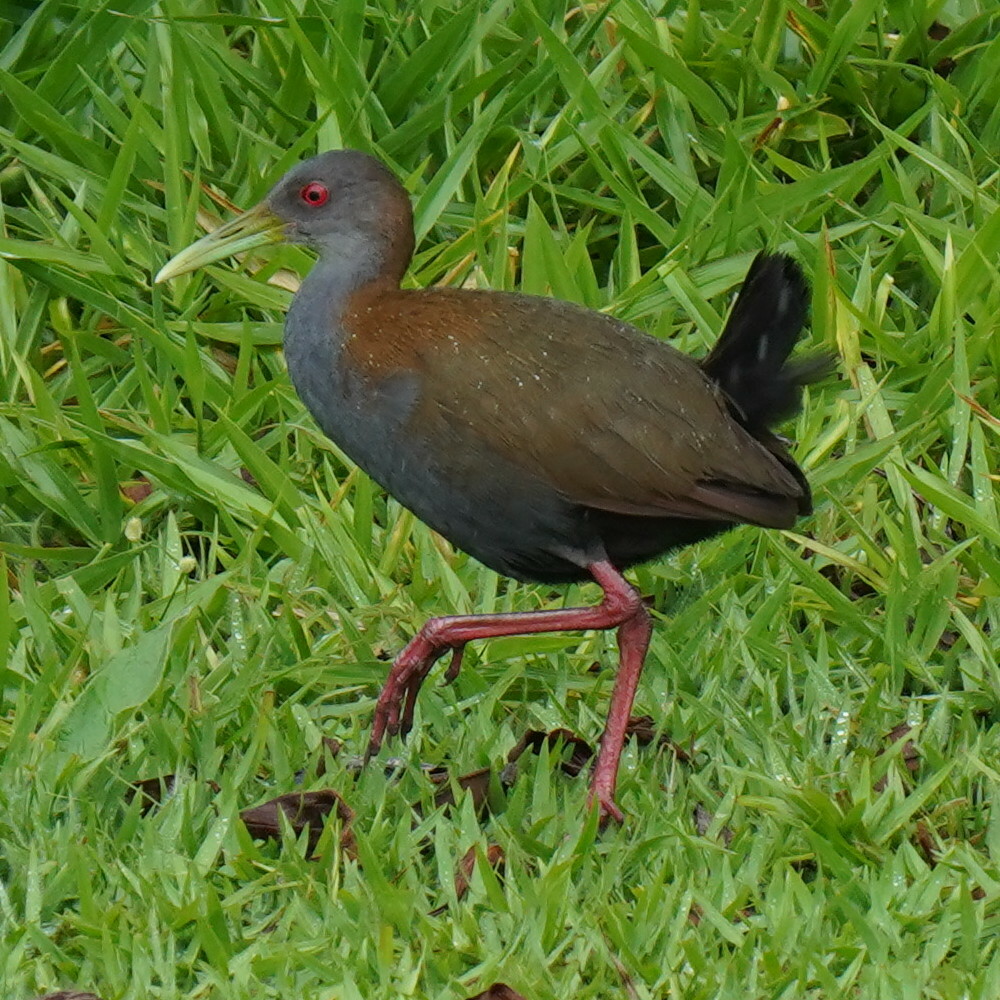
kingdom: Animalia
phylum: Chordata
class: Aves
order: Gruiformes
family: Rallidae
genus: Aramides
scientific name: Aramides saracura
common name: Slaty-breasted wood rail
